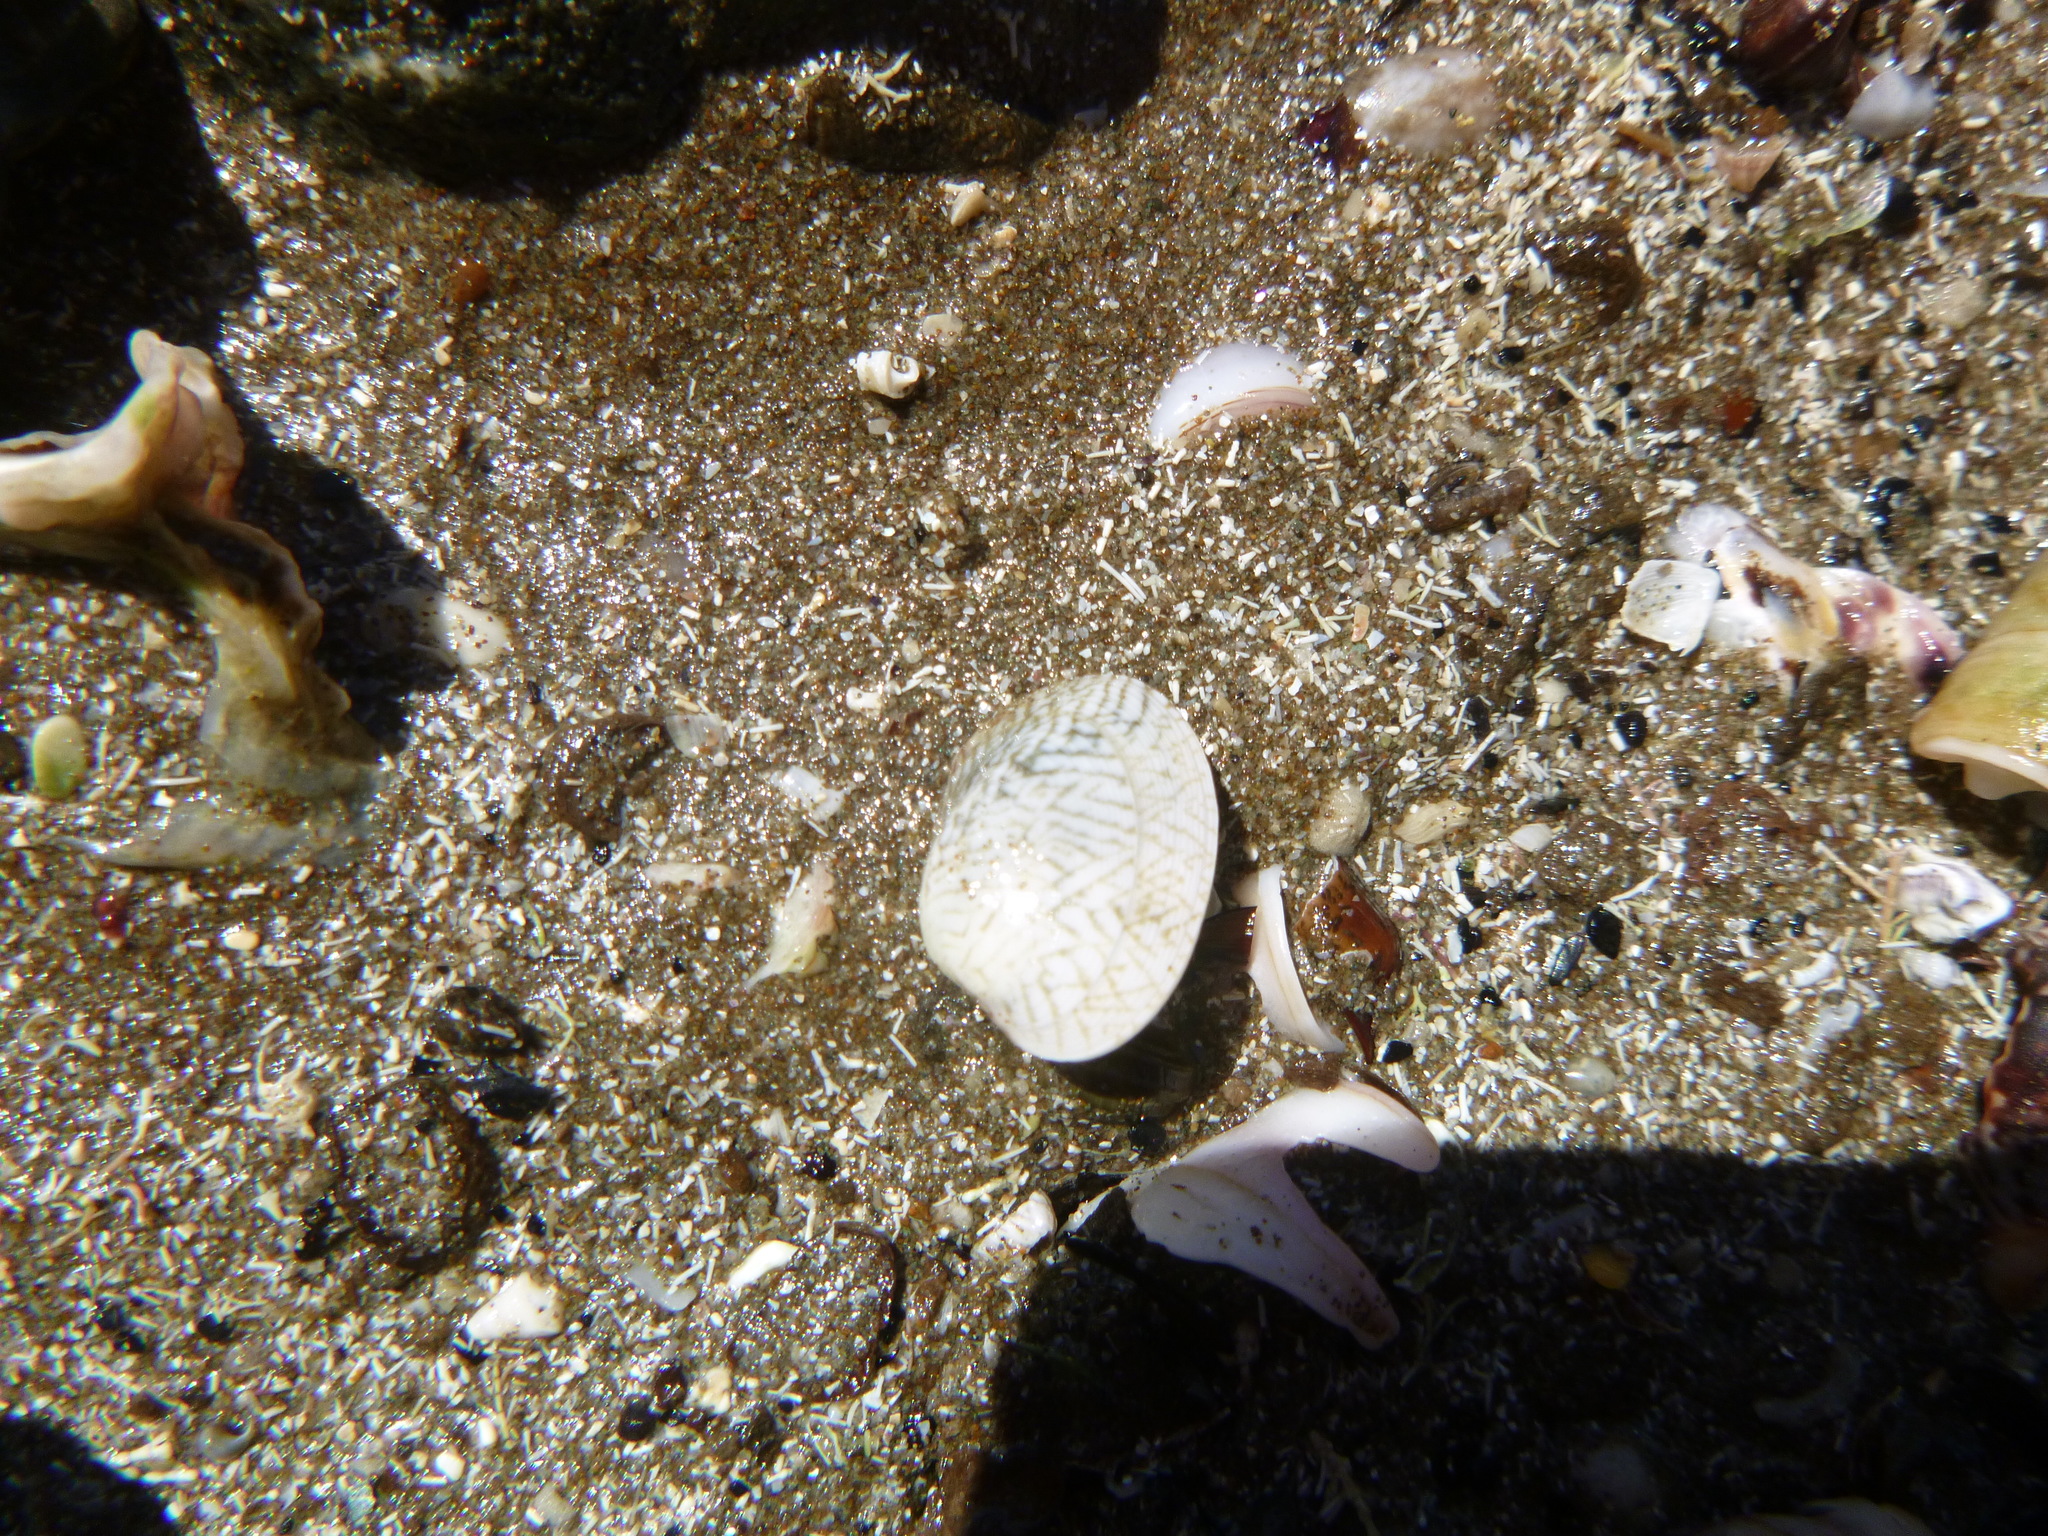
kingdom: Animalia
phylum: Mollusca
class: Bivalvia
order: Venerida
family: Veneridae
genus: Venerupis
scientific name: Venerupis largillierti
